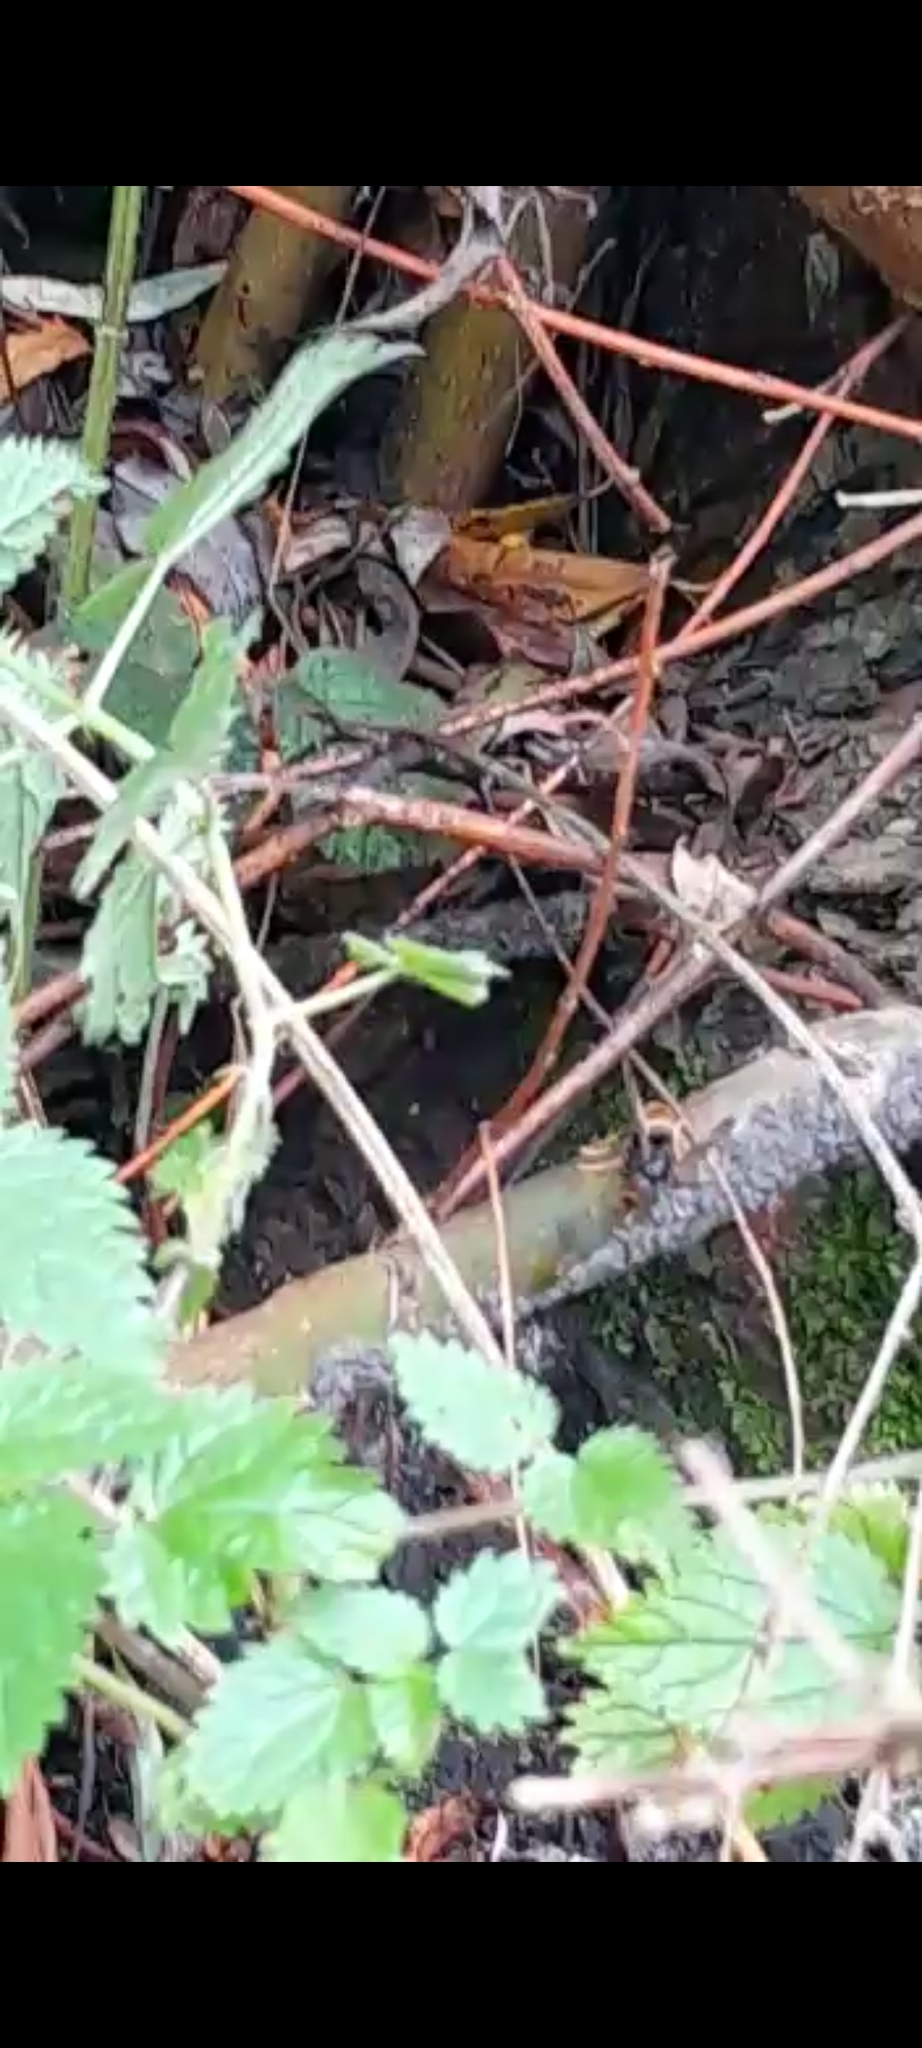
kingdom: Animalia
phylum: Arthropoda
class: Insecta
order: Hymenoptera
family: Vespidae
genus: Vespa
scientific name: Vespa velutina
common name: Asian hornet
